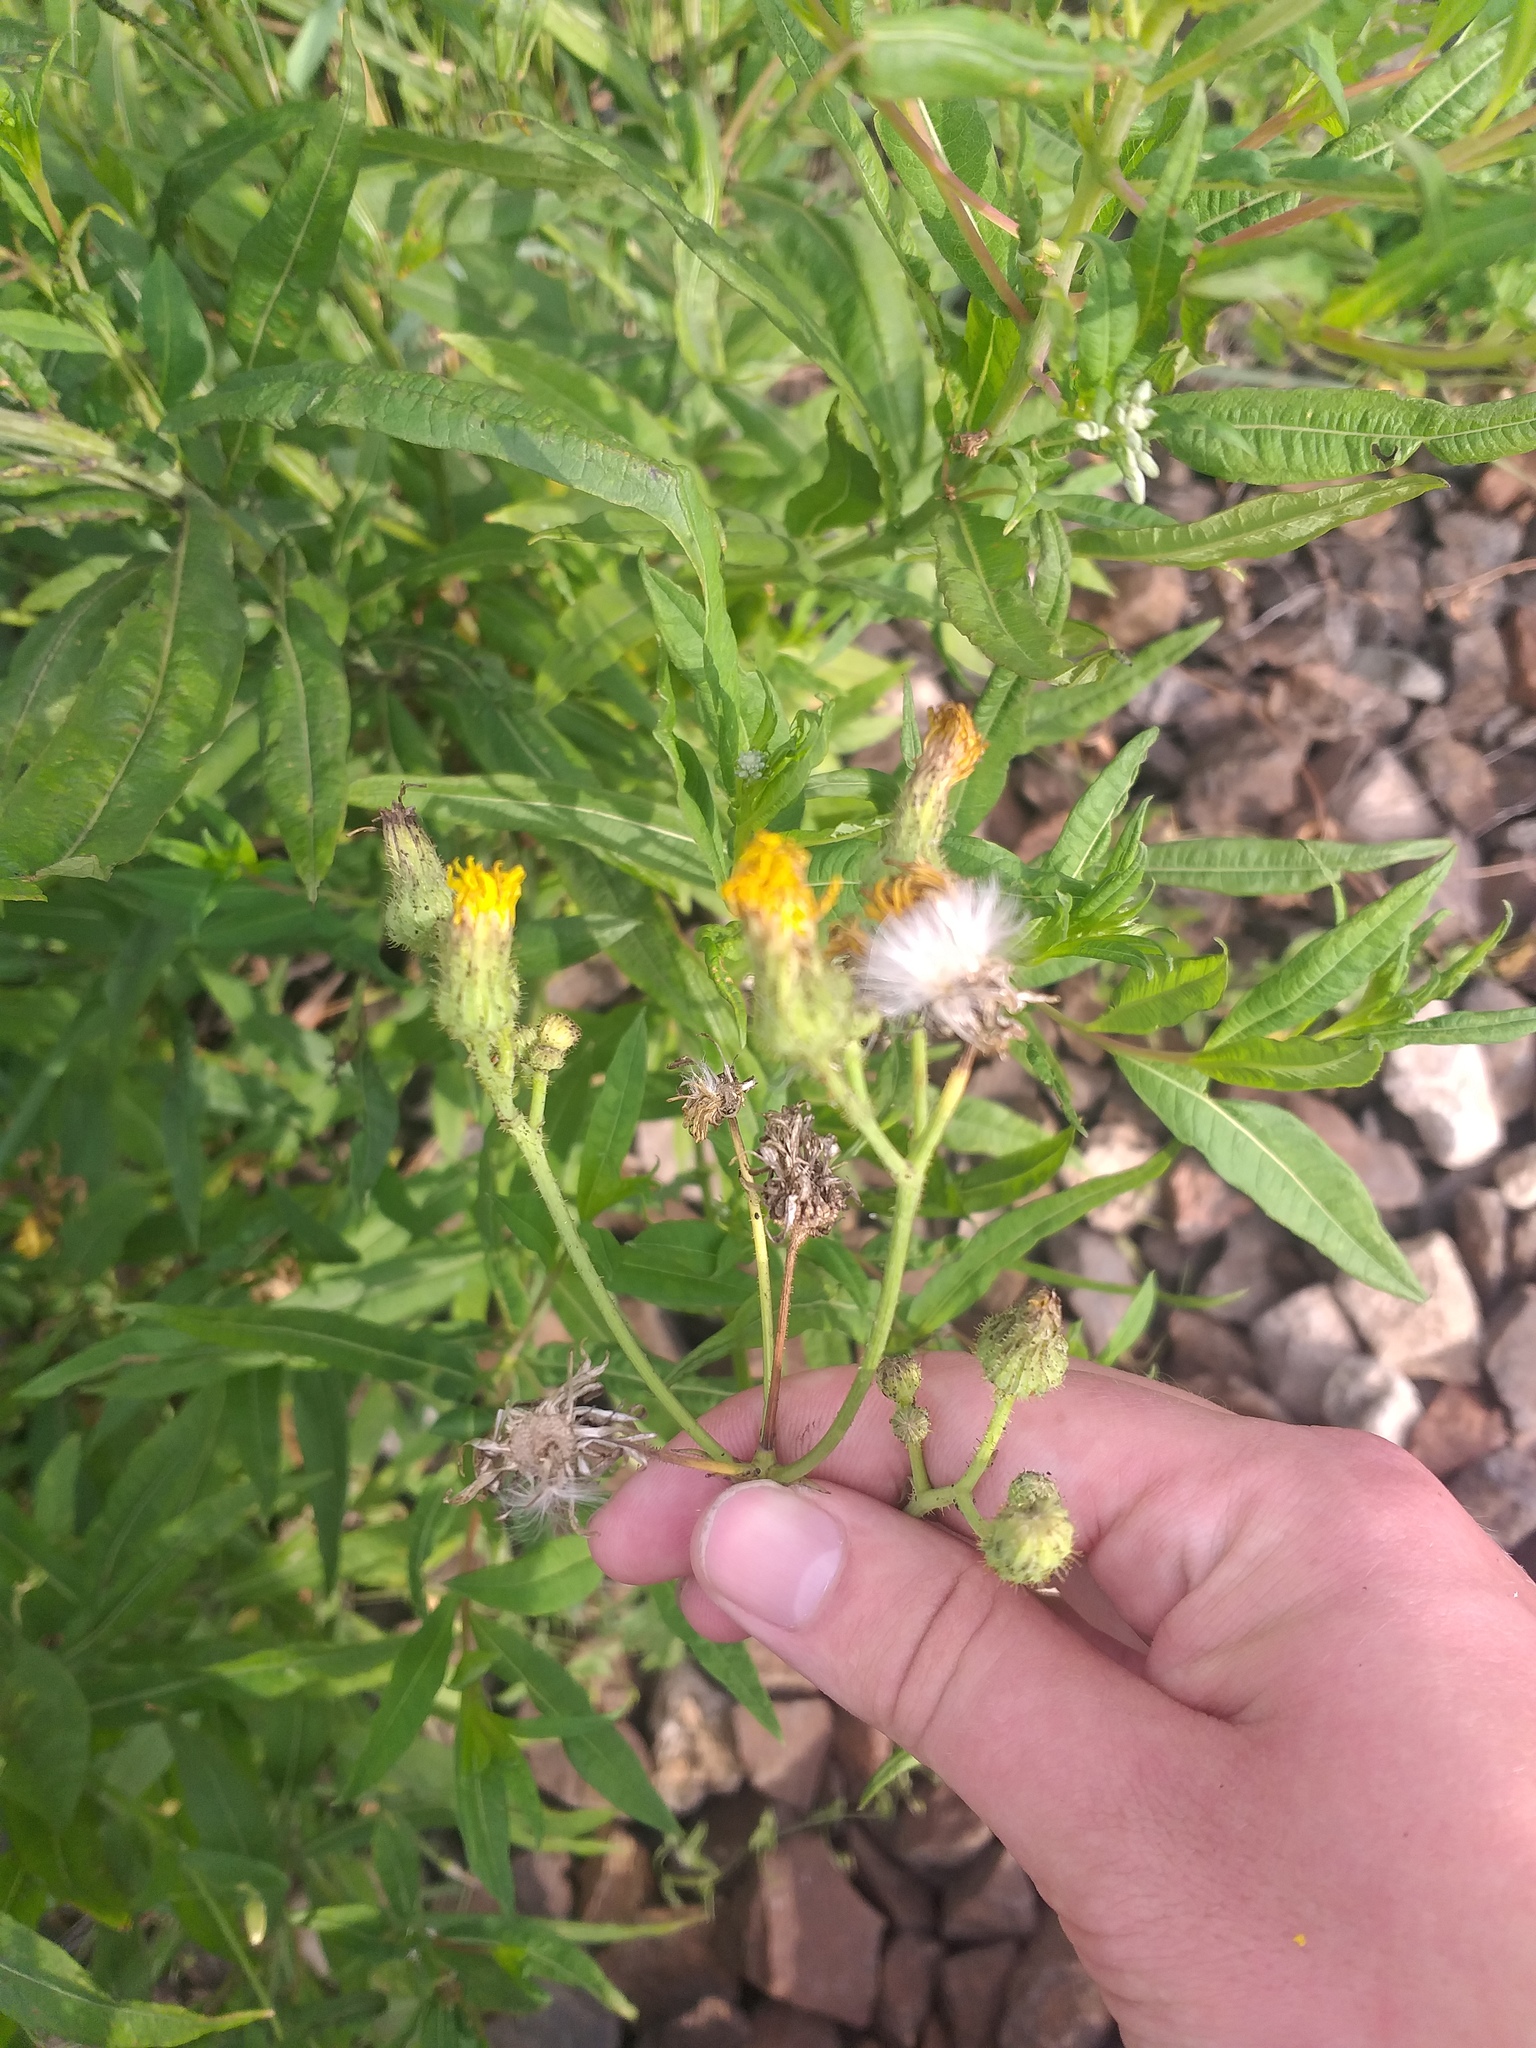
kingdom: Plantae
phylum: Tracheophyta
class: Magnoliopsida
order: Asterales
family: Asteraceae
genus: Sonchus
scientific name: Sonchus arvensis
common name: Perennial sow-thistle
